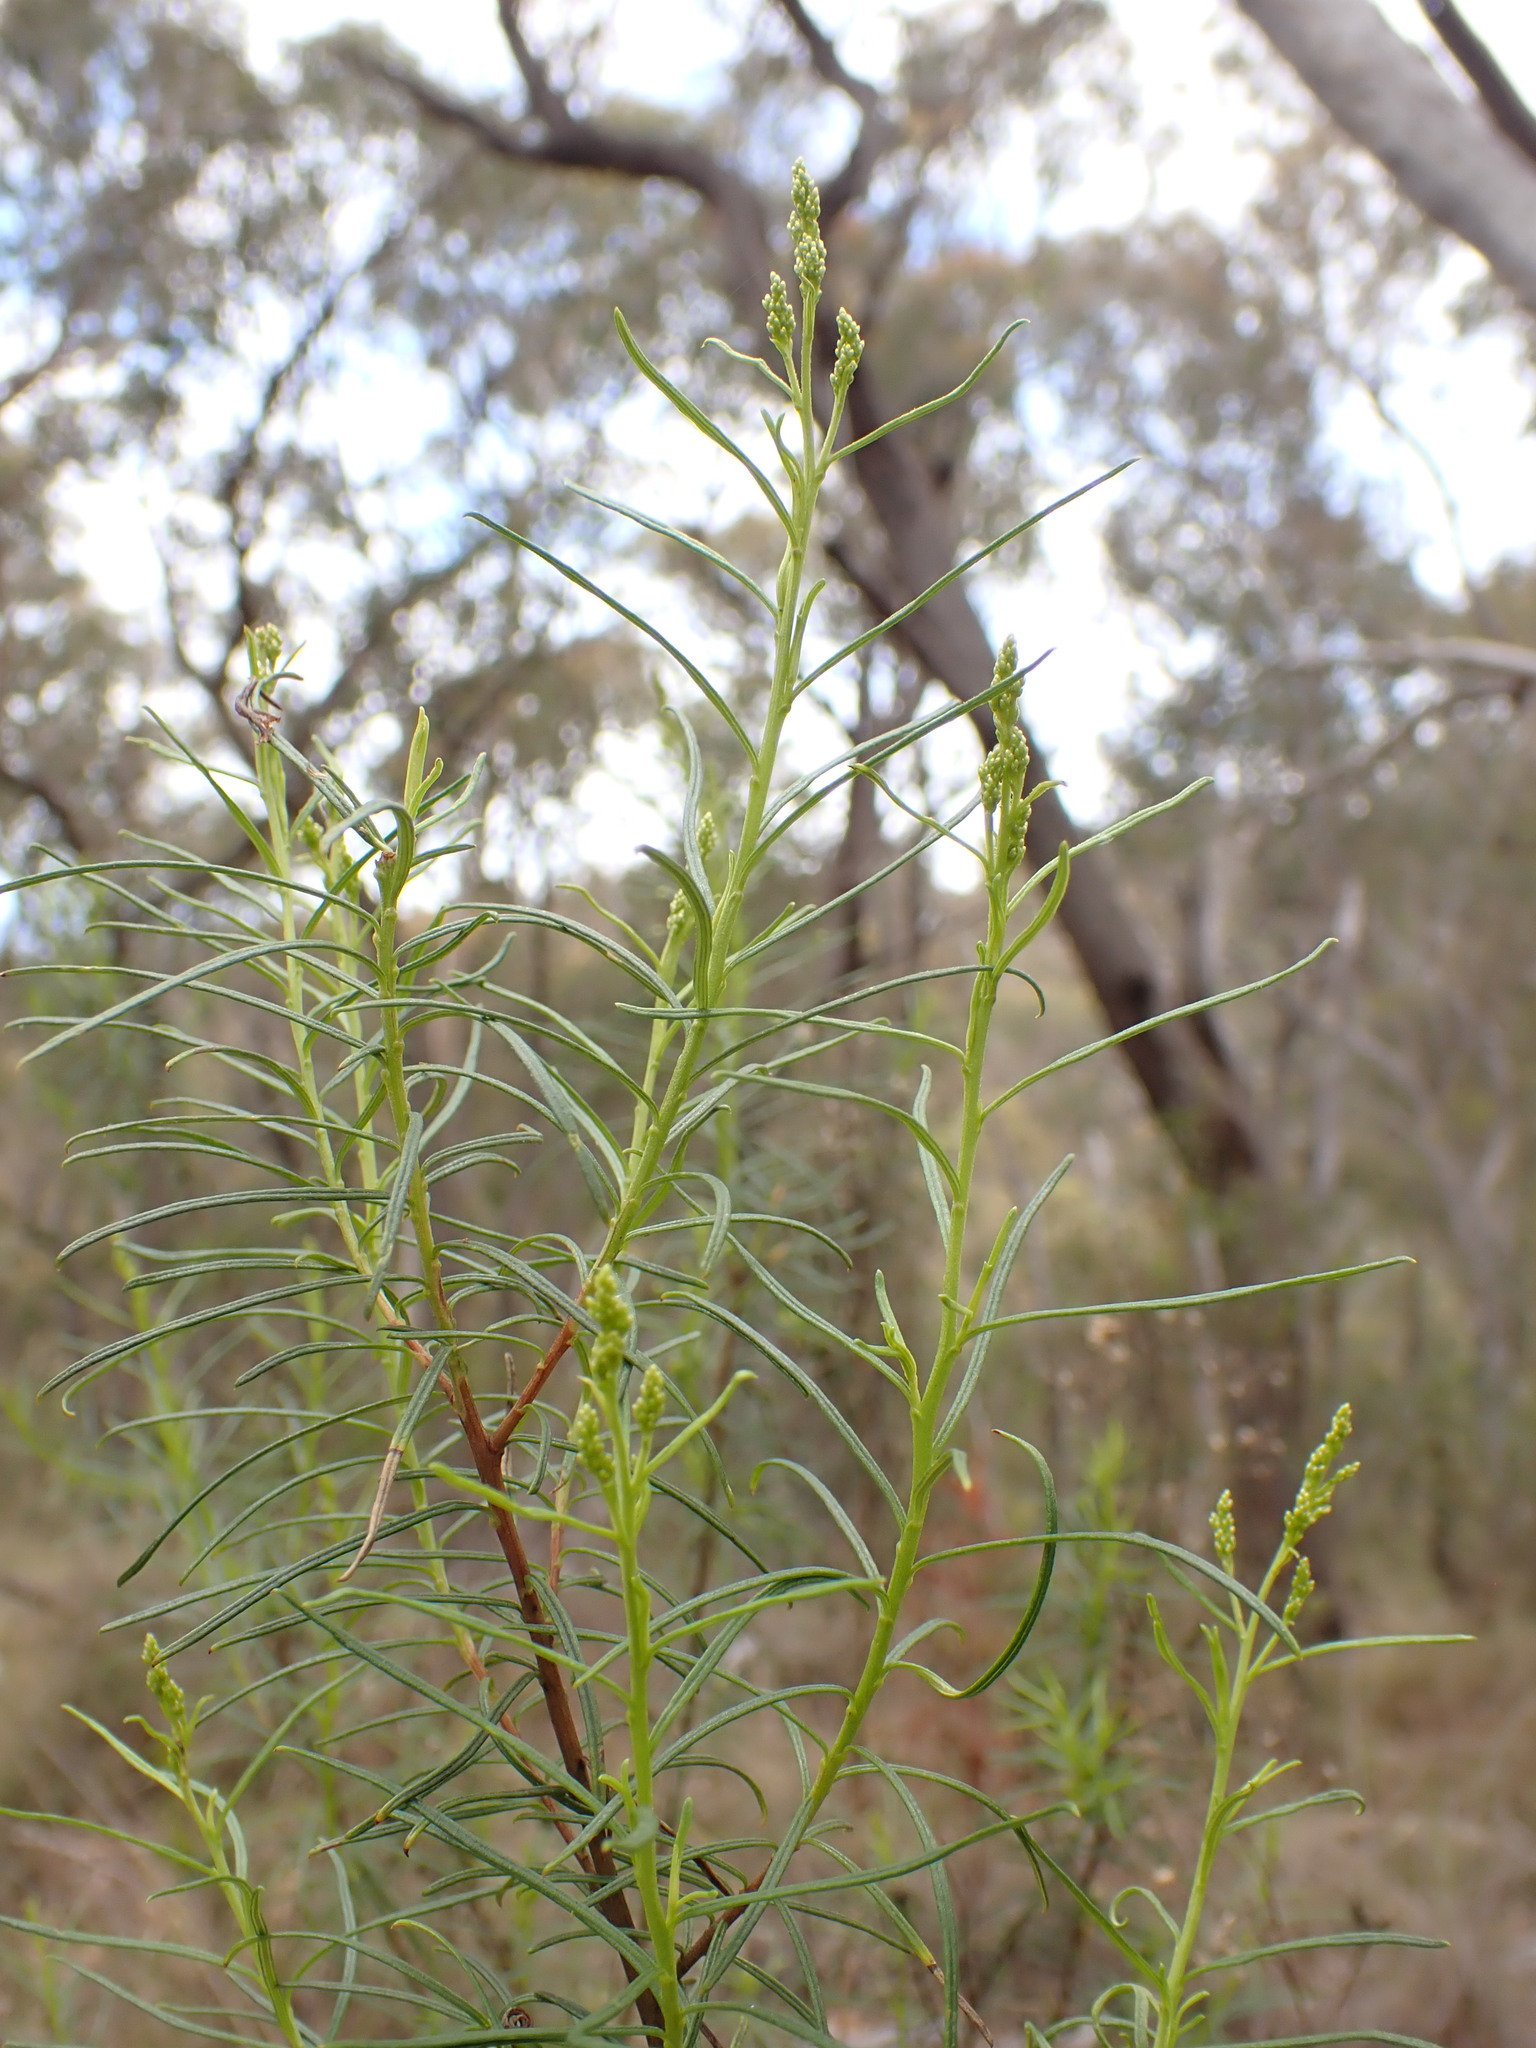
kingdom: Plantae
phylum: Tracheophyta
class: Magnoliopsida
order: Asterales
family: Asteraceae
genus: Cassinia
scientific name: Cassinia quinquefaria
